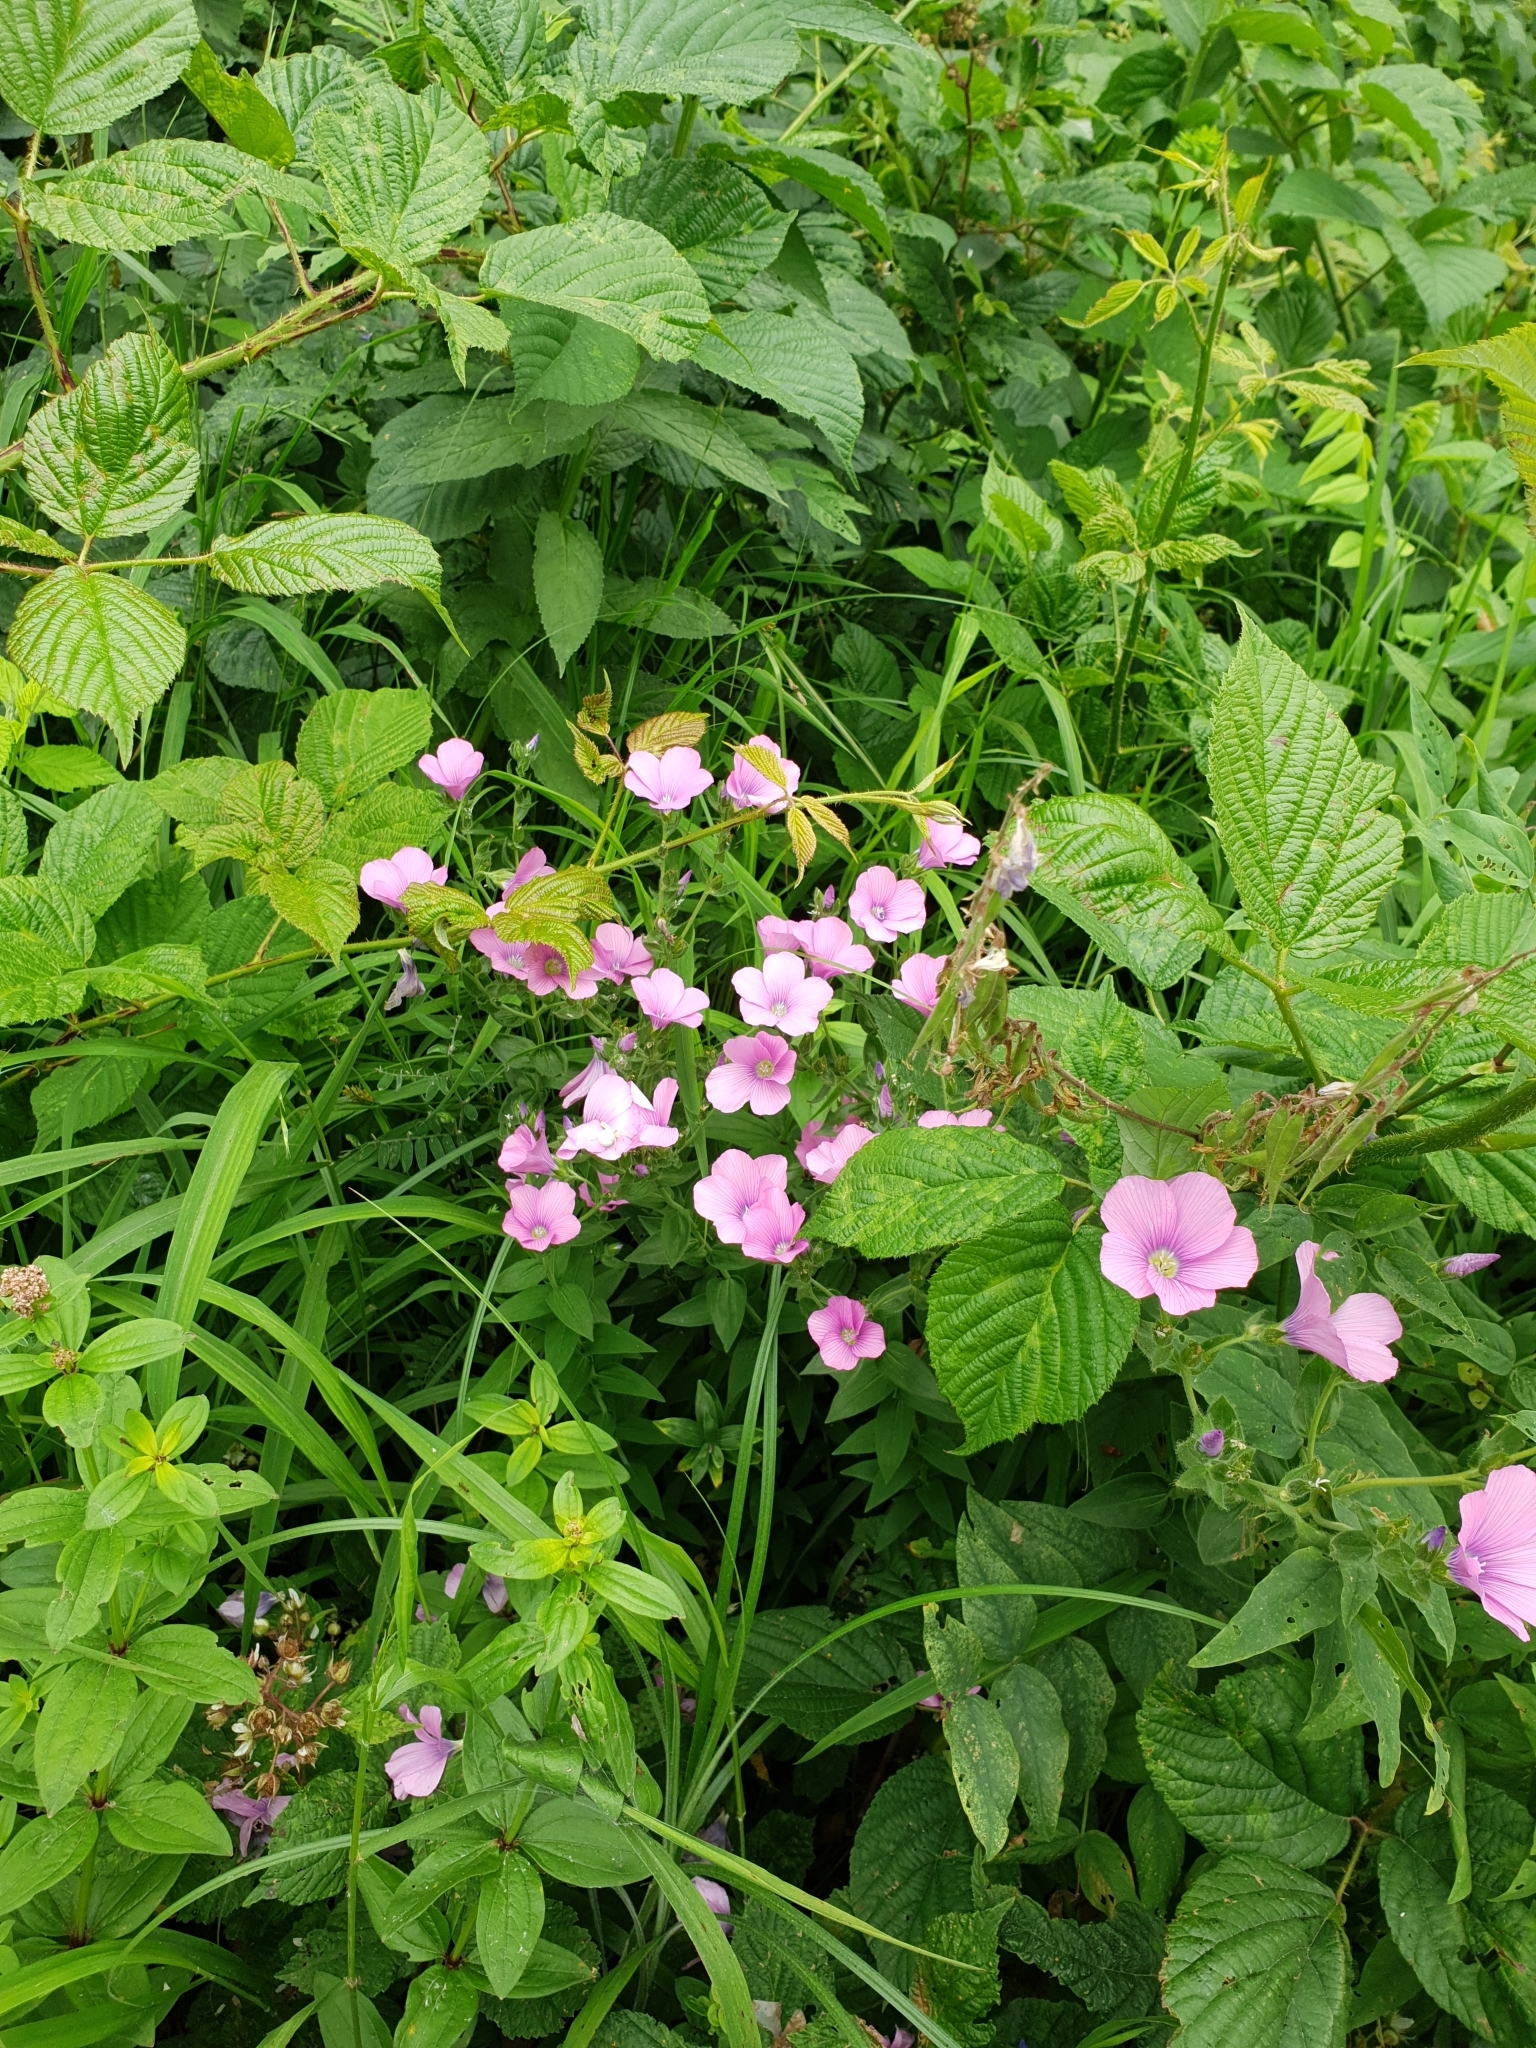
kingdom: Plantae
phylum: Tracheophyta
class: Magnoliopsida
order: Malpighiales
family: Linaceae
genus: Linum
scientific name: Linum hypericifolium
